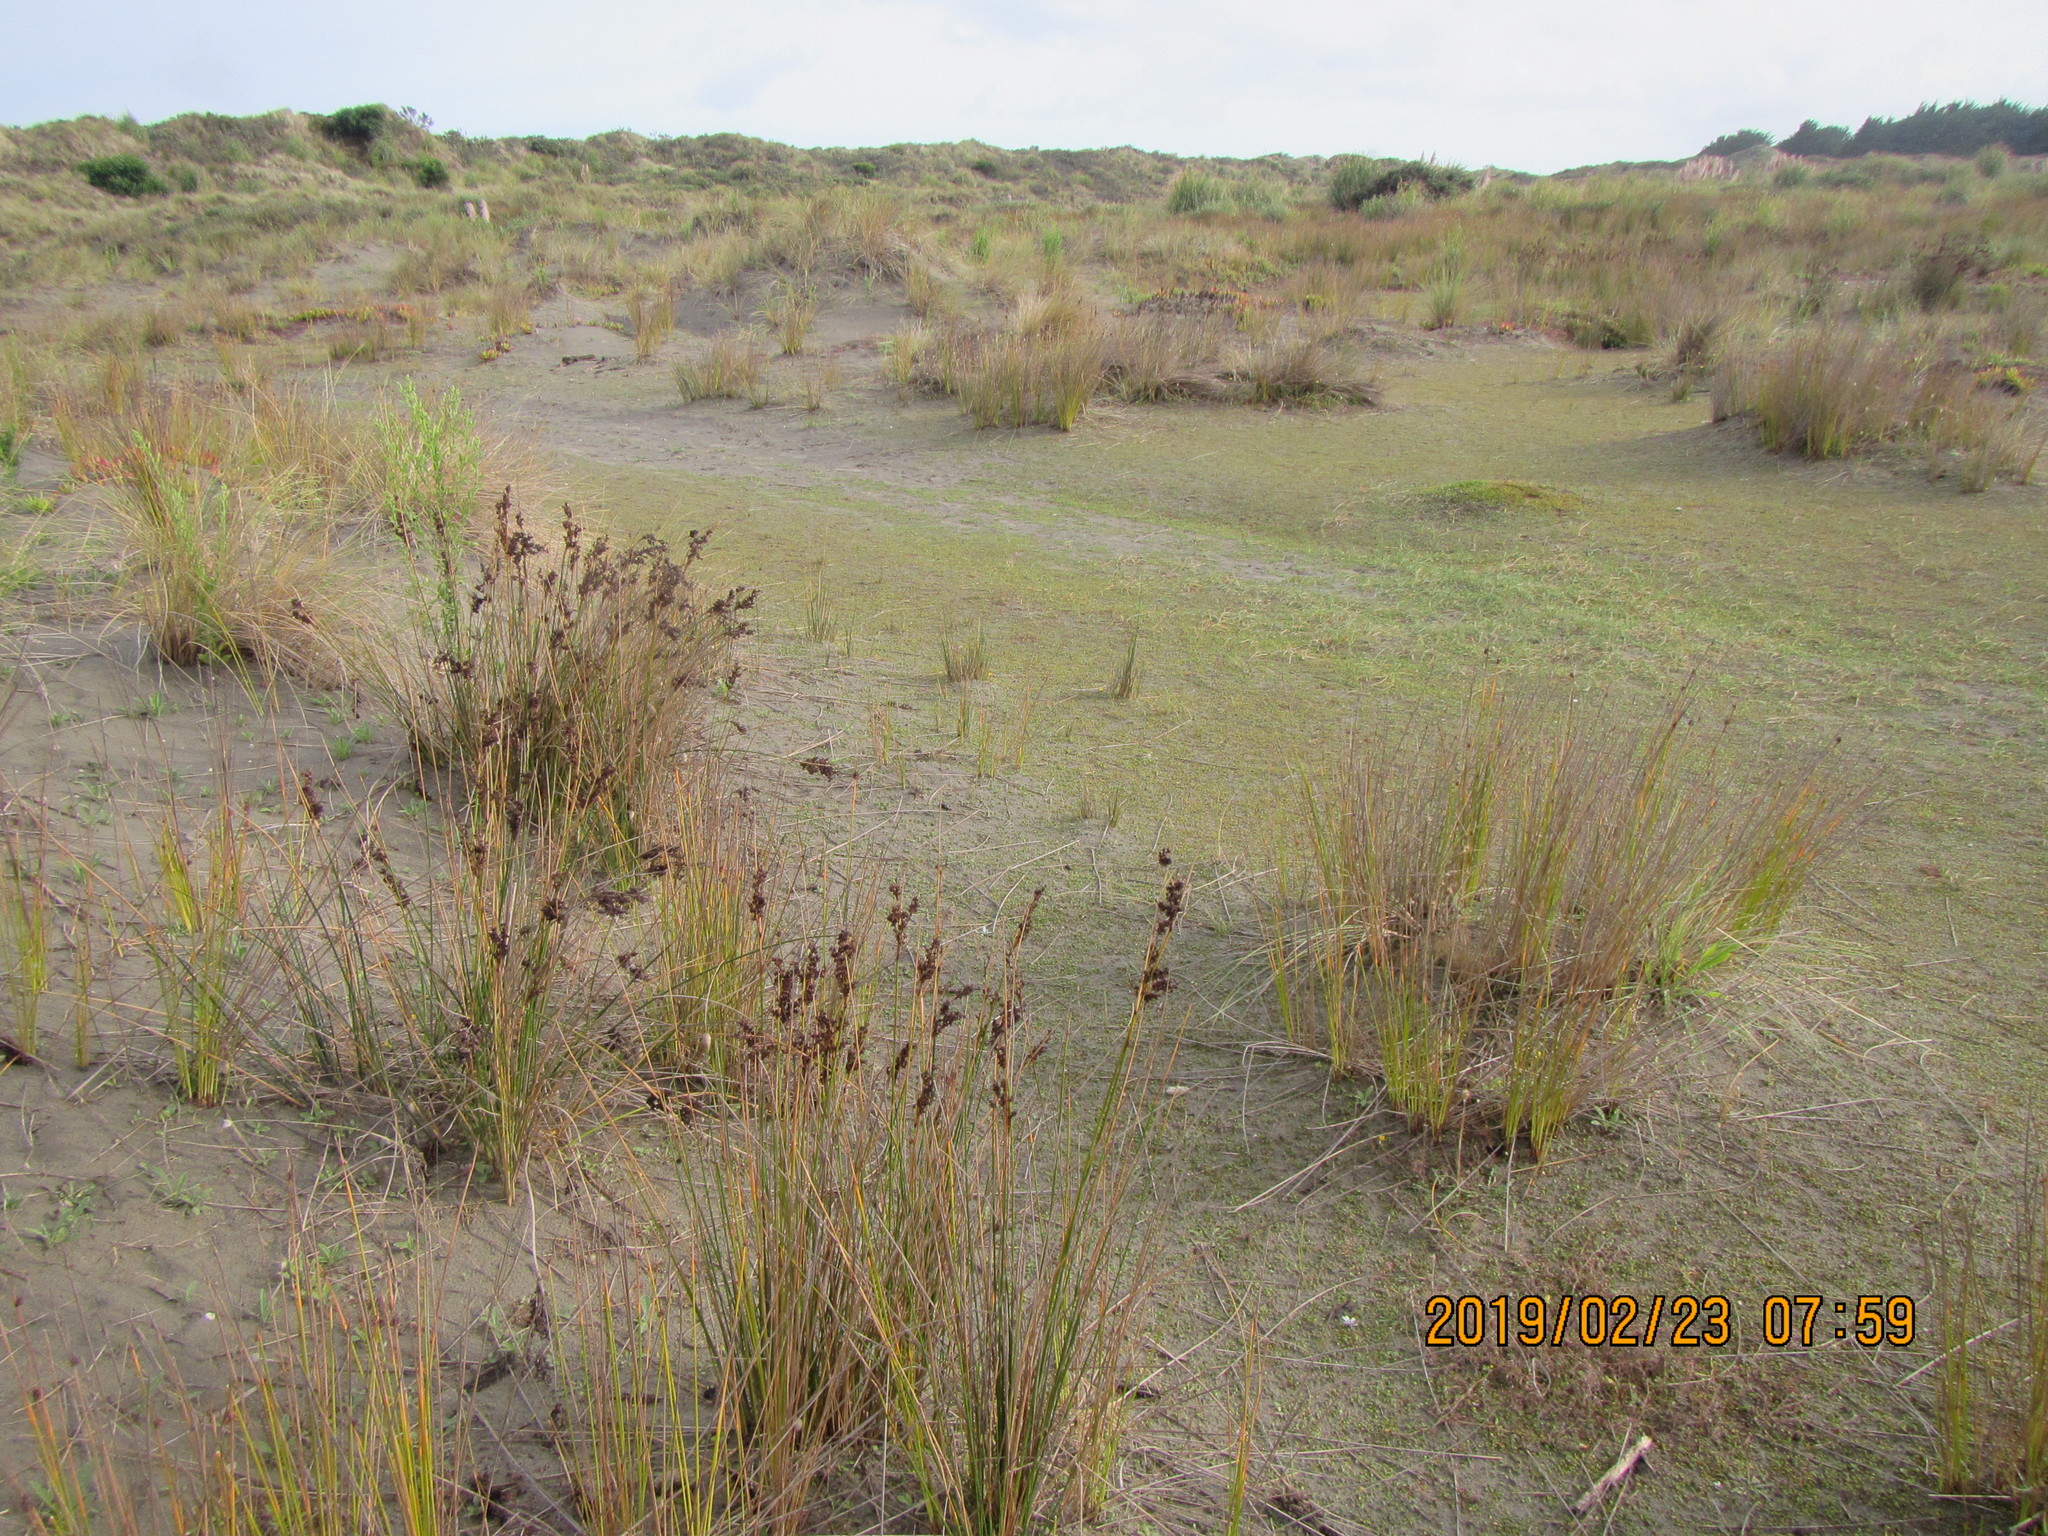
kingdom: Plantae
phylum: Tracheophyta
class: Liliopsida
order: Poales
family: Juncaceae
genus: Juncus
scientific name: Juncus kraussii
